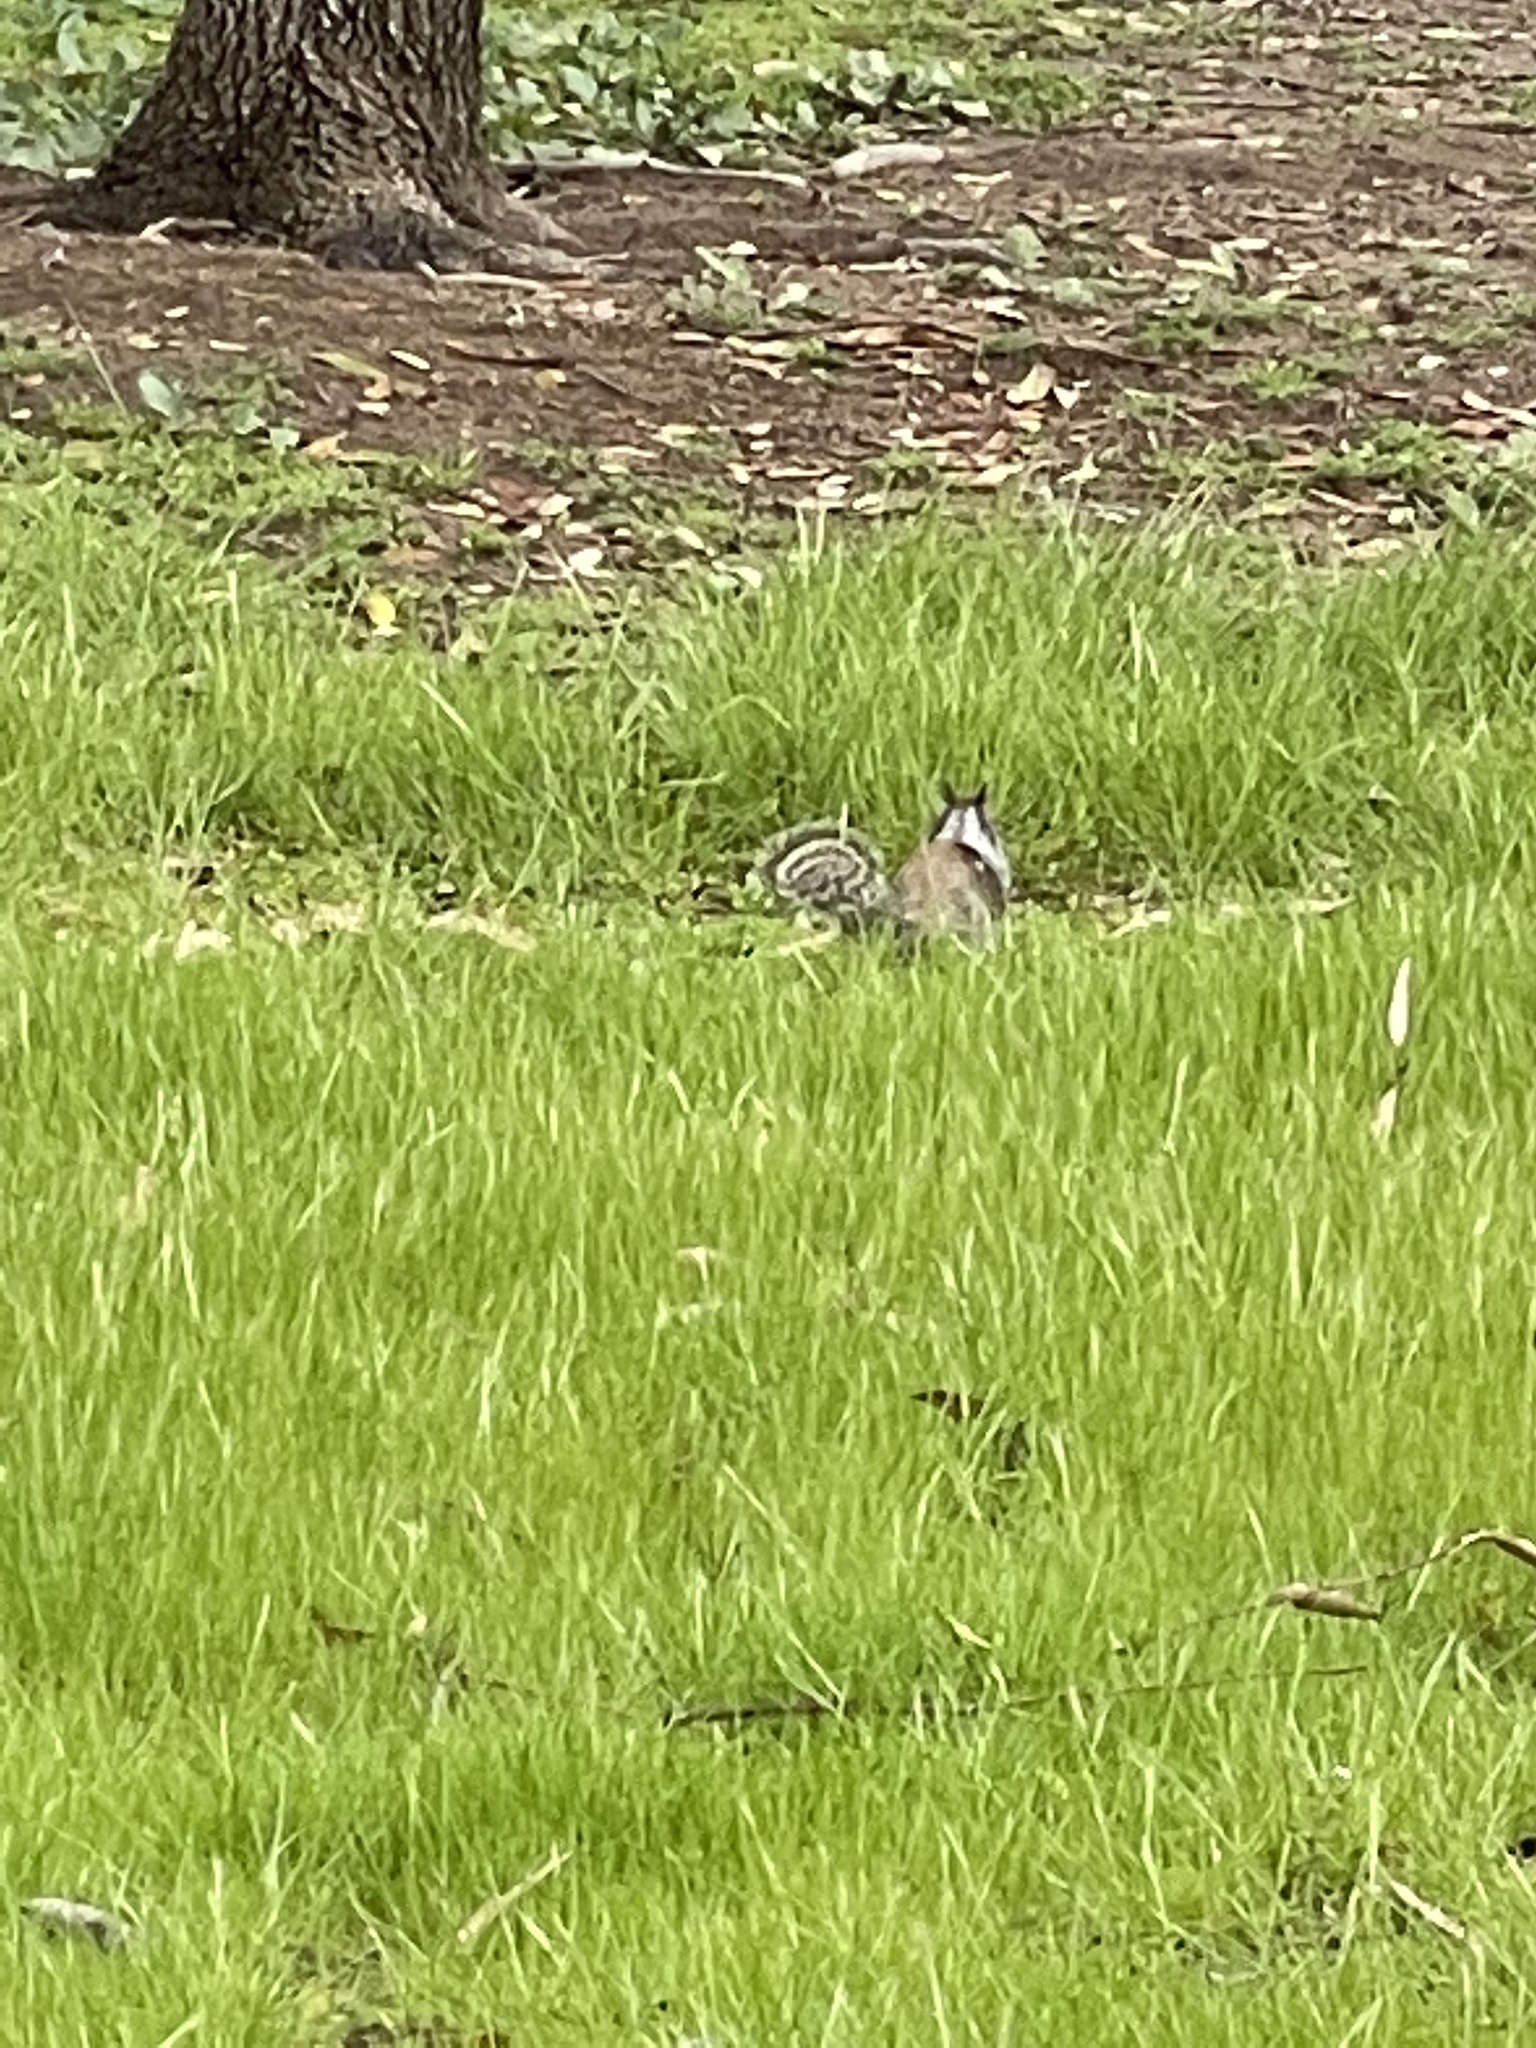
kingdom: Animalia
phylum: Chordata
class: Mammalia
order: Rodentia
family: Sciuridae
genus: Otospermophilus
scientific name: Otospermophilus beecheyi
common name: California ground squirrel
